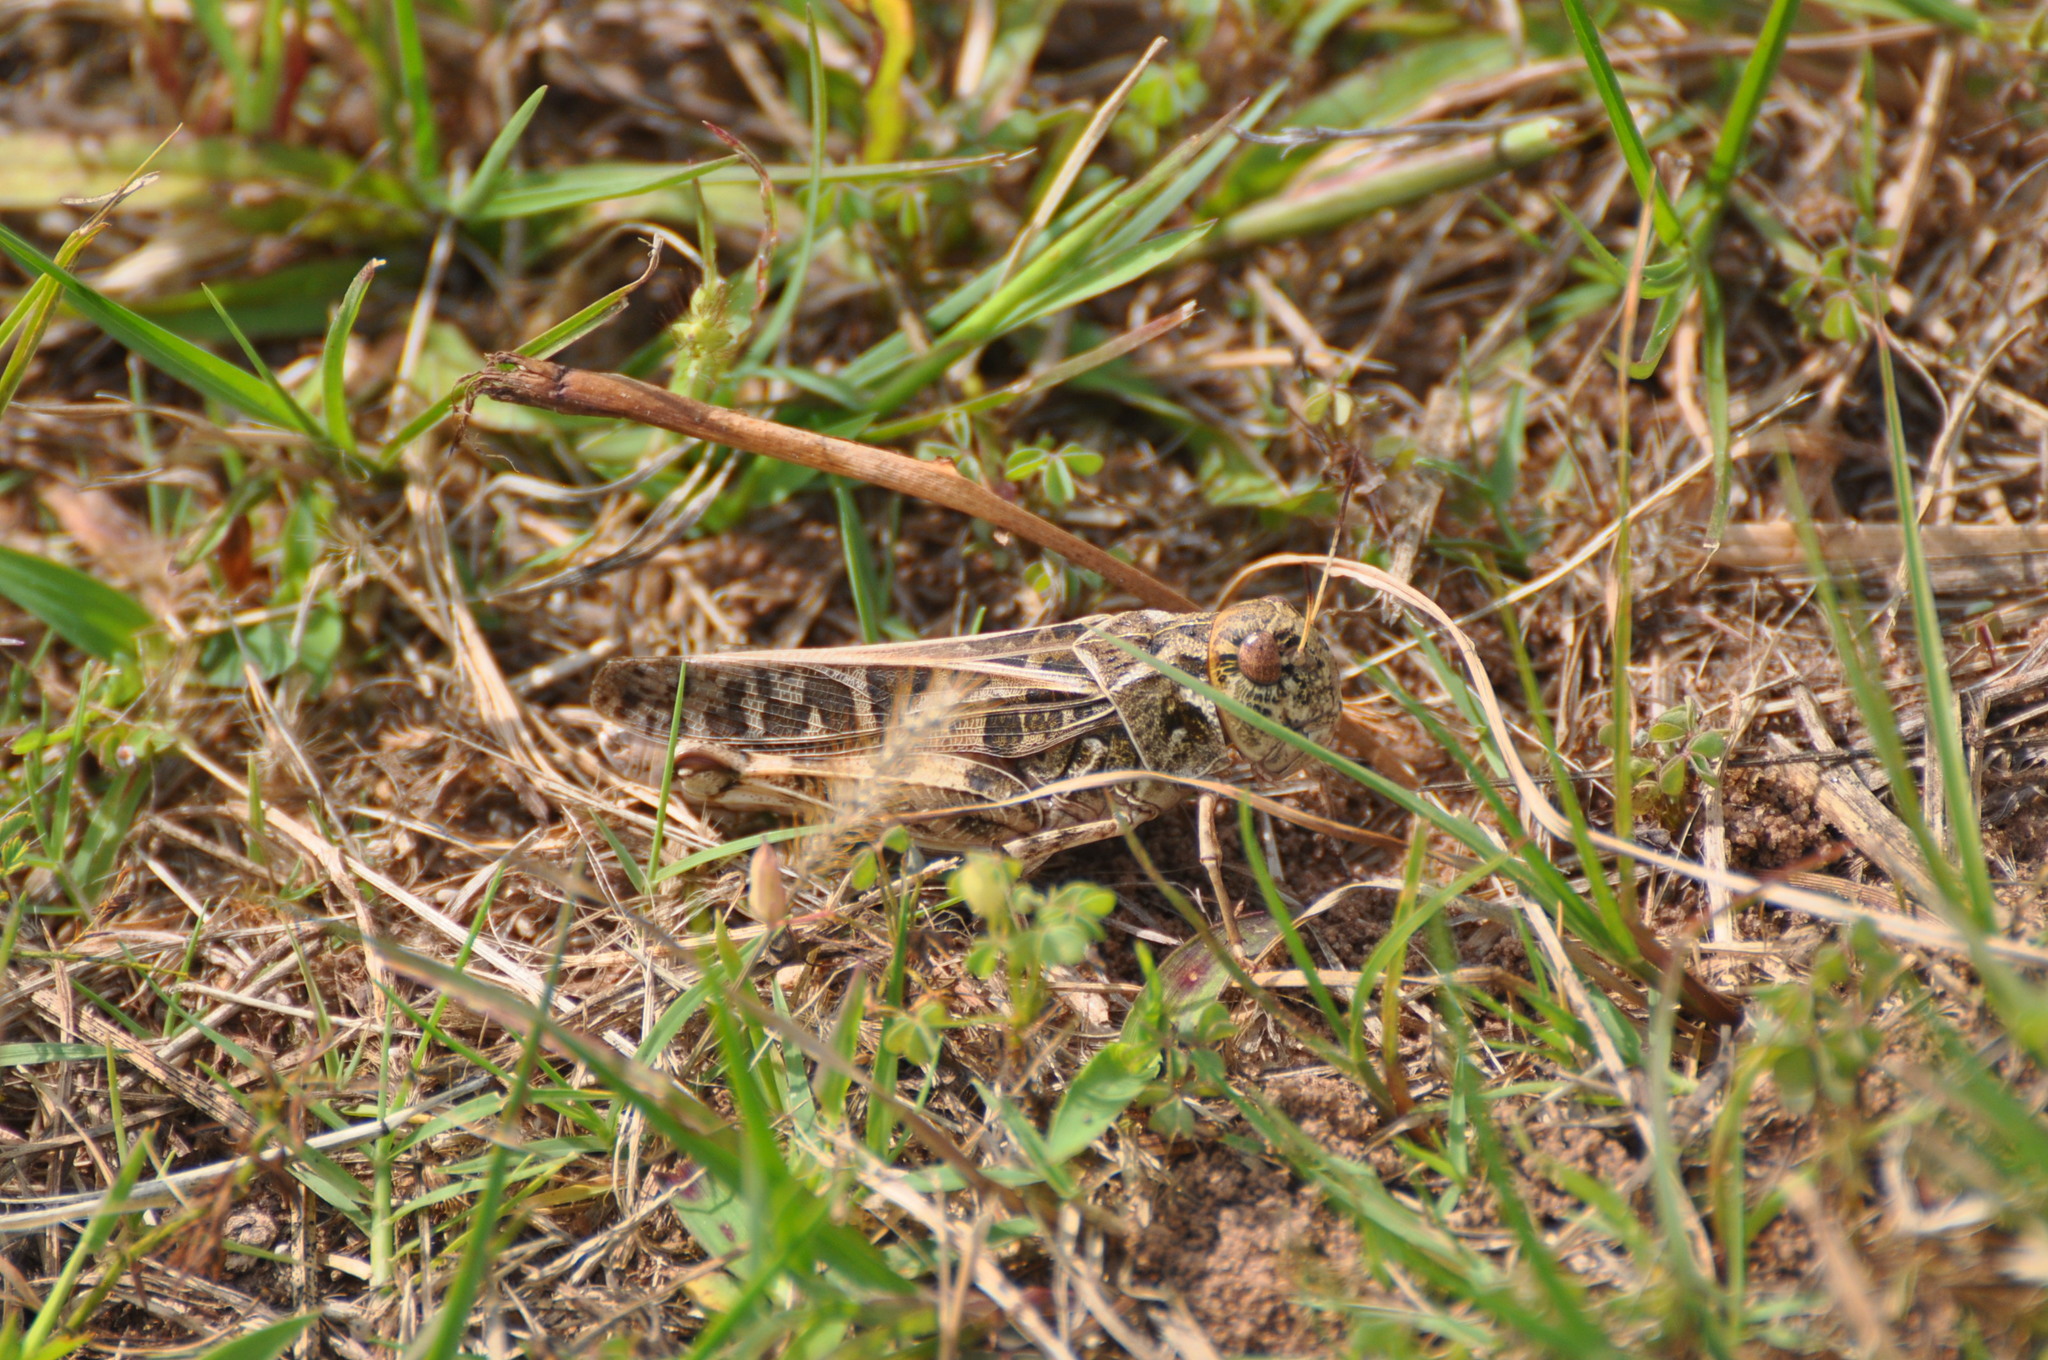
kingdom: Animalia
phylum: Arthropoda
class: Insecta
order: Orthoptera
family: Acrididae
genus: Hippiscus
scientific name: Hippiscus ocelote
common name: Wrinkled grasshopper
